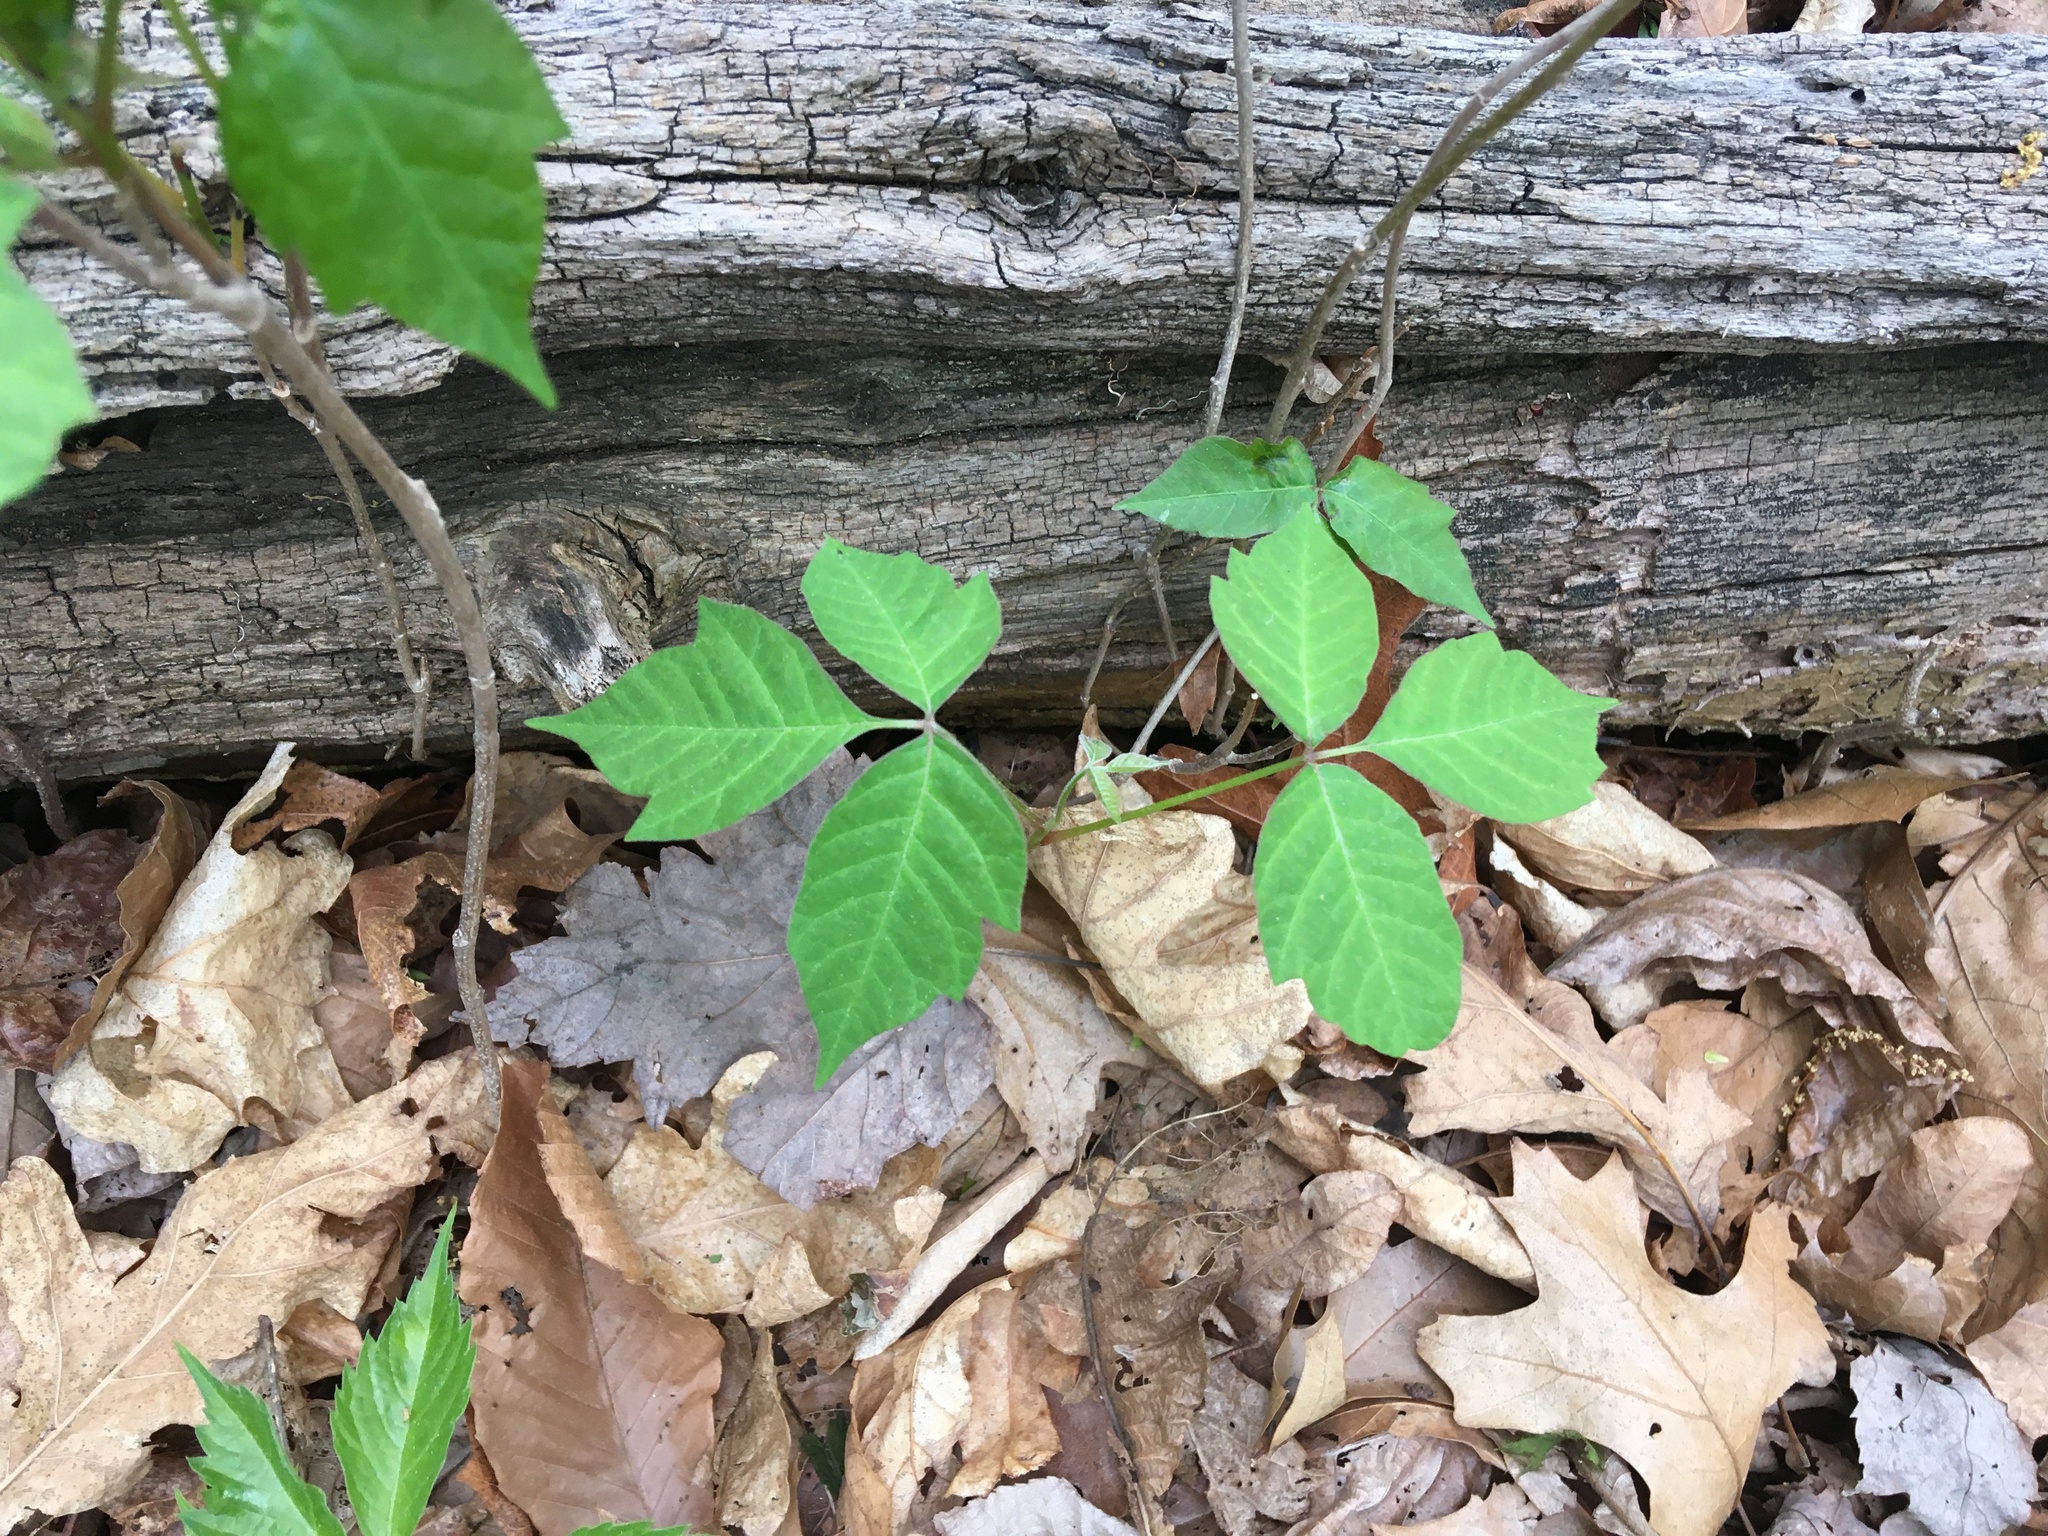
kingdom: Plantae
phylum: Tracheophyta
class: Magnoliopsida
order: Sapindales
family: Anacardiaceae
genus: Toxicodendron
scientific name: Toxicodendron radicans
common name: Poison ivy
